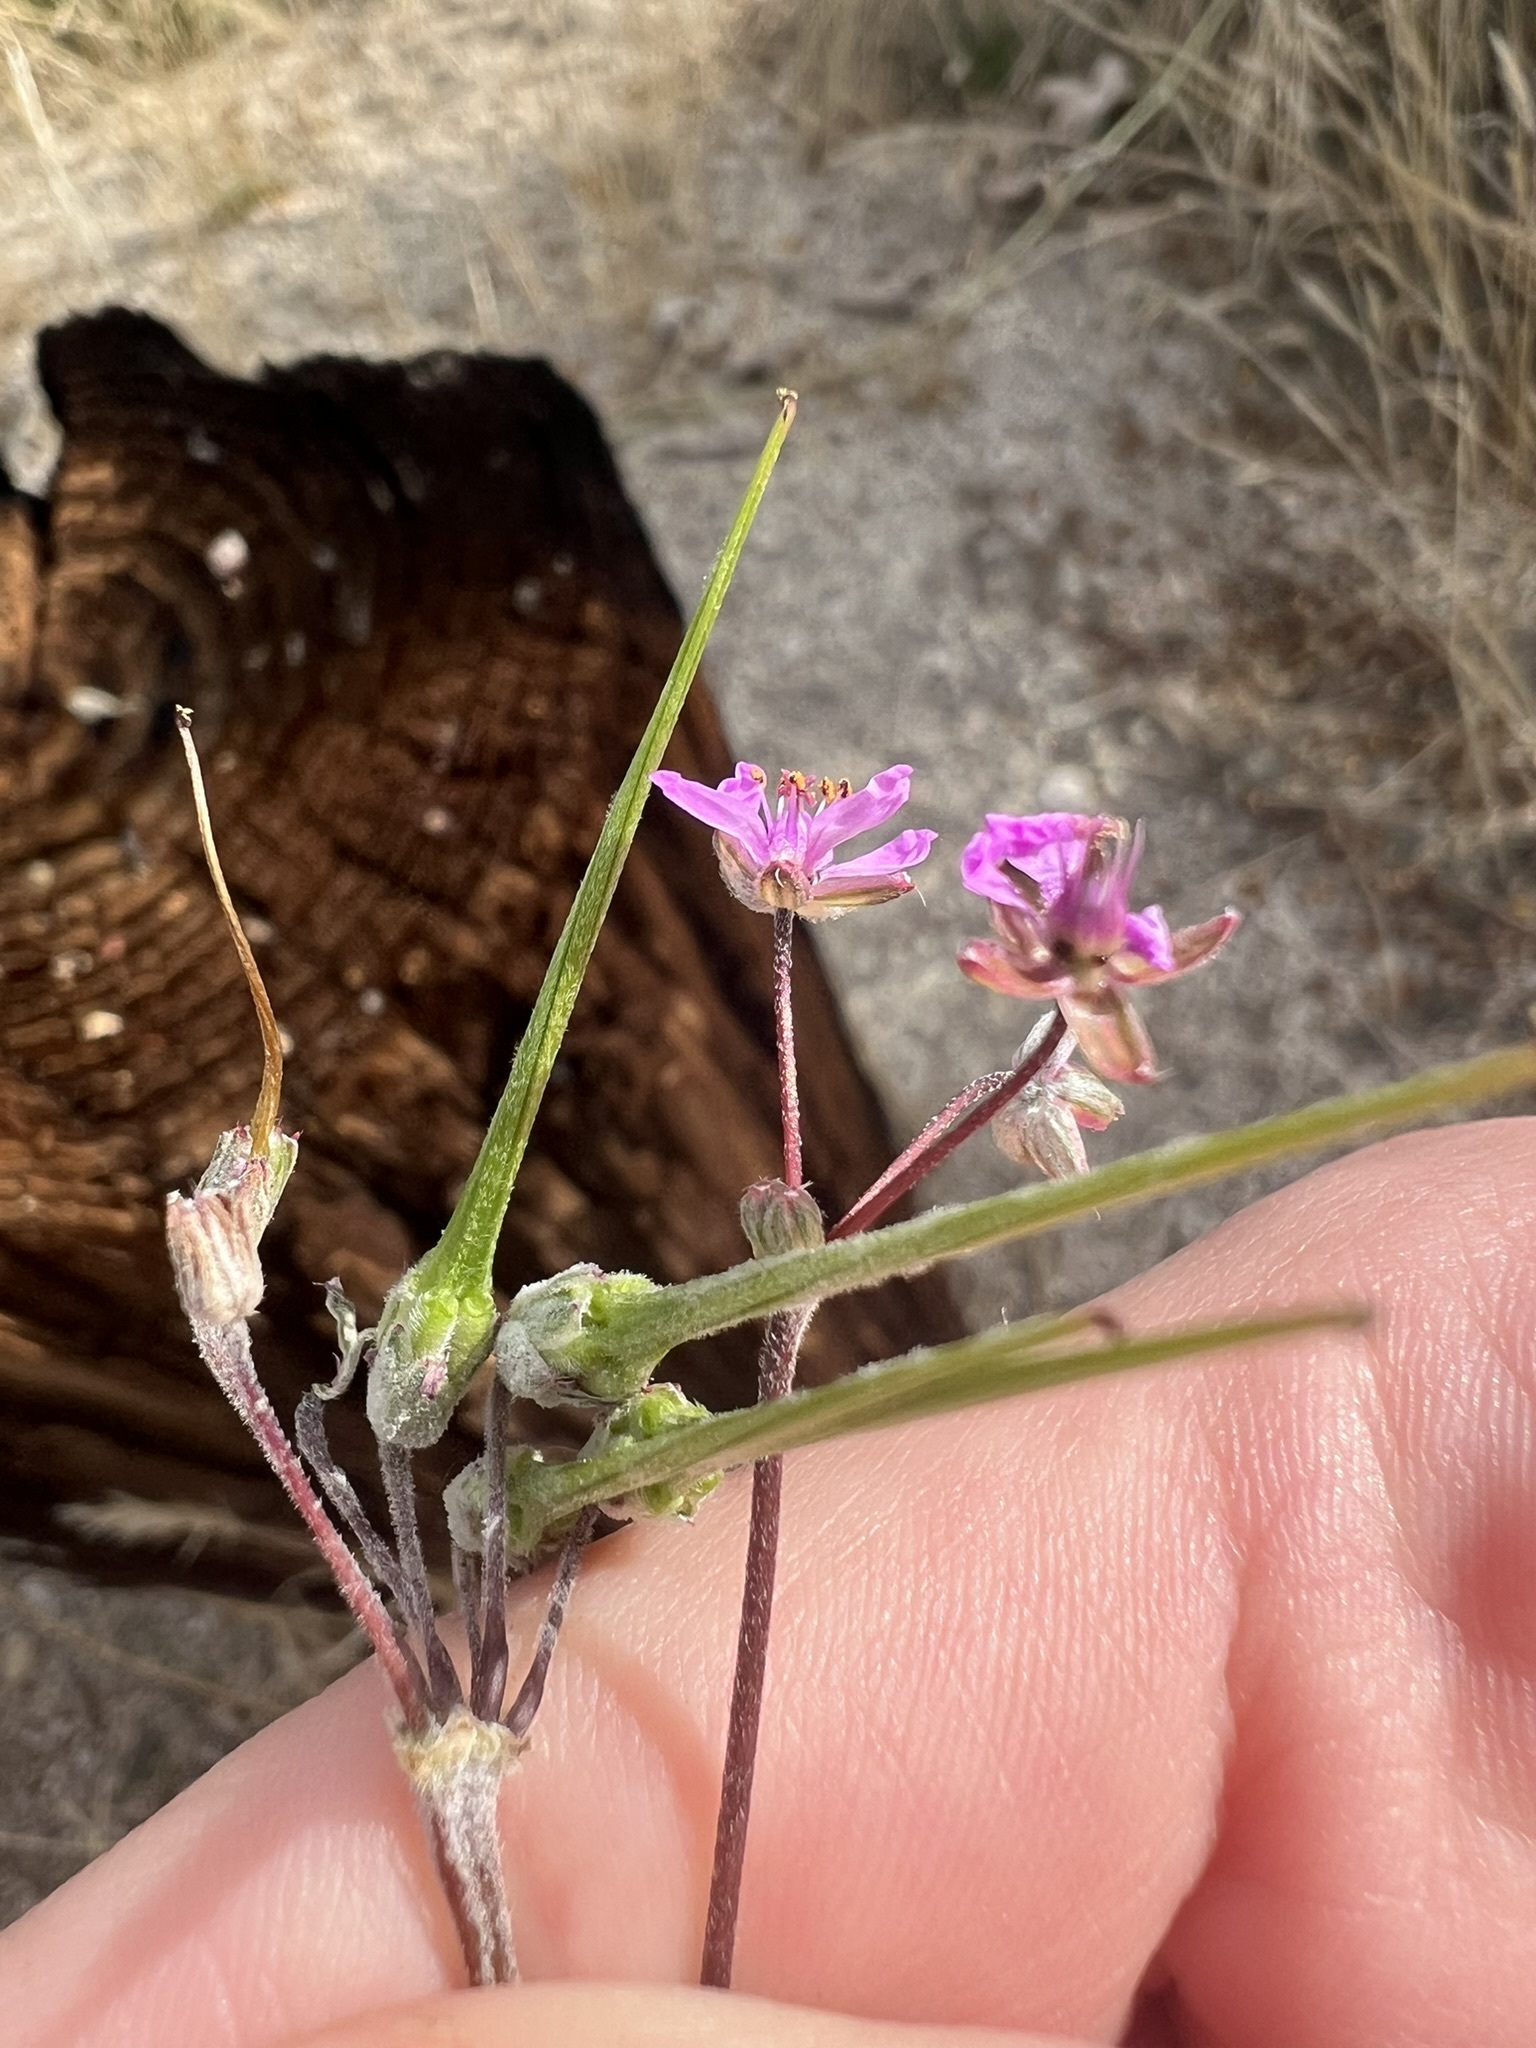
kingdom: Plantae
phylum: Tracheophyta
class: Magnoliopsida
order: Geraniales
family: Geraniaceae
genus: Erodium
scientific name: Erodium cicutarium
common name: Common stork's-bill
